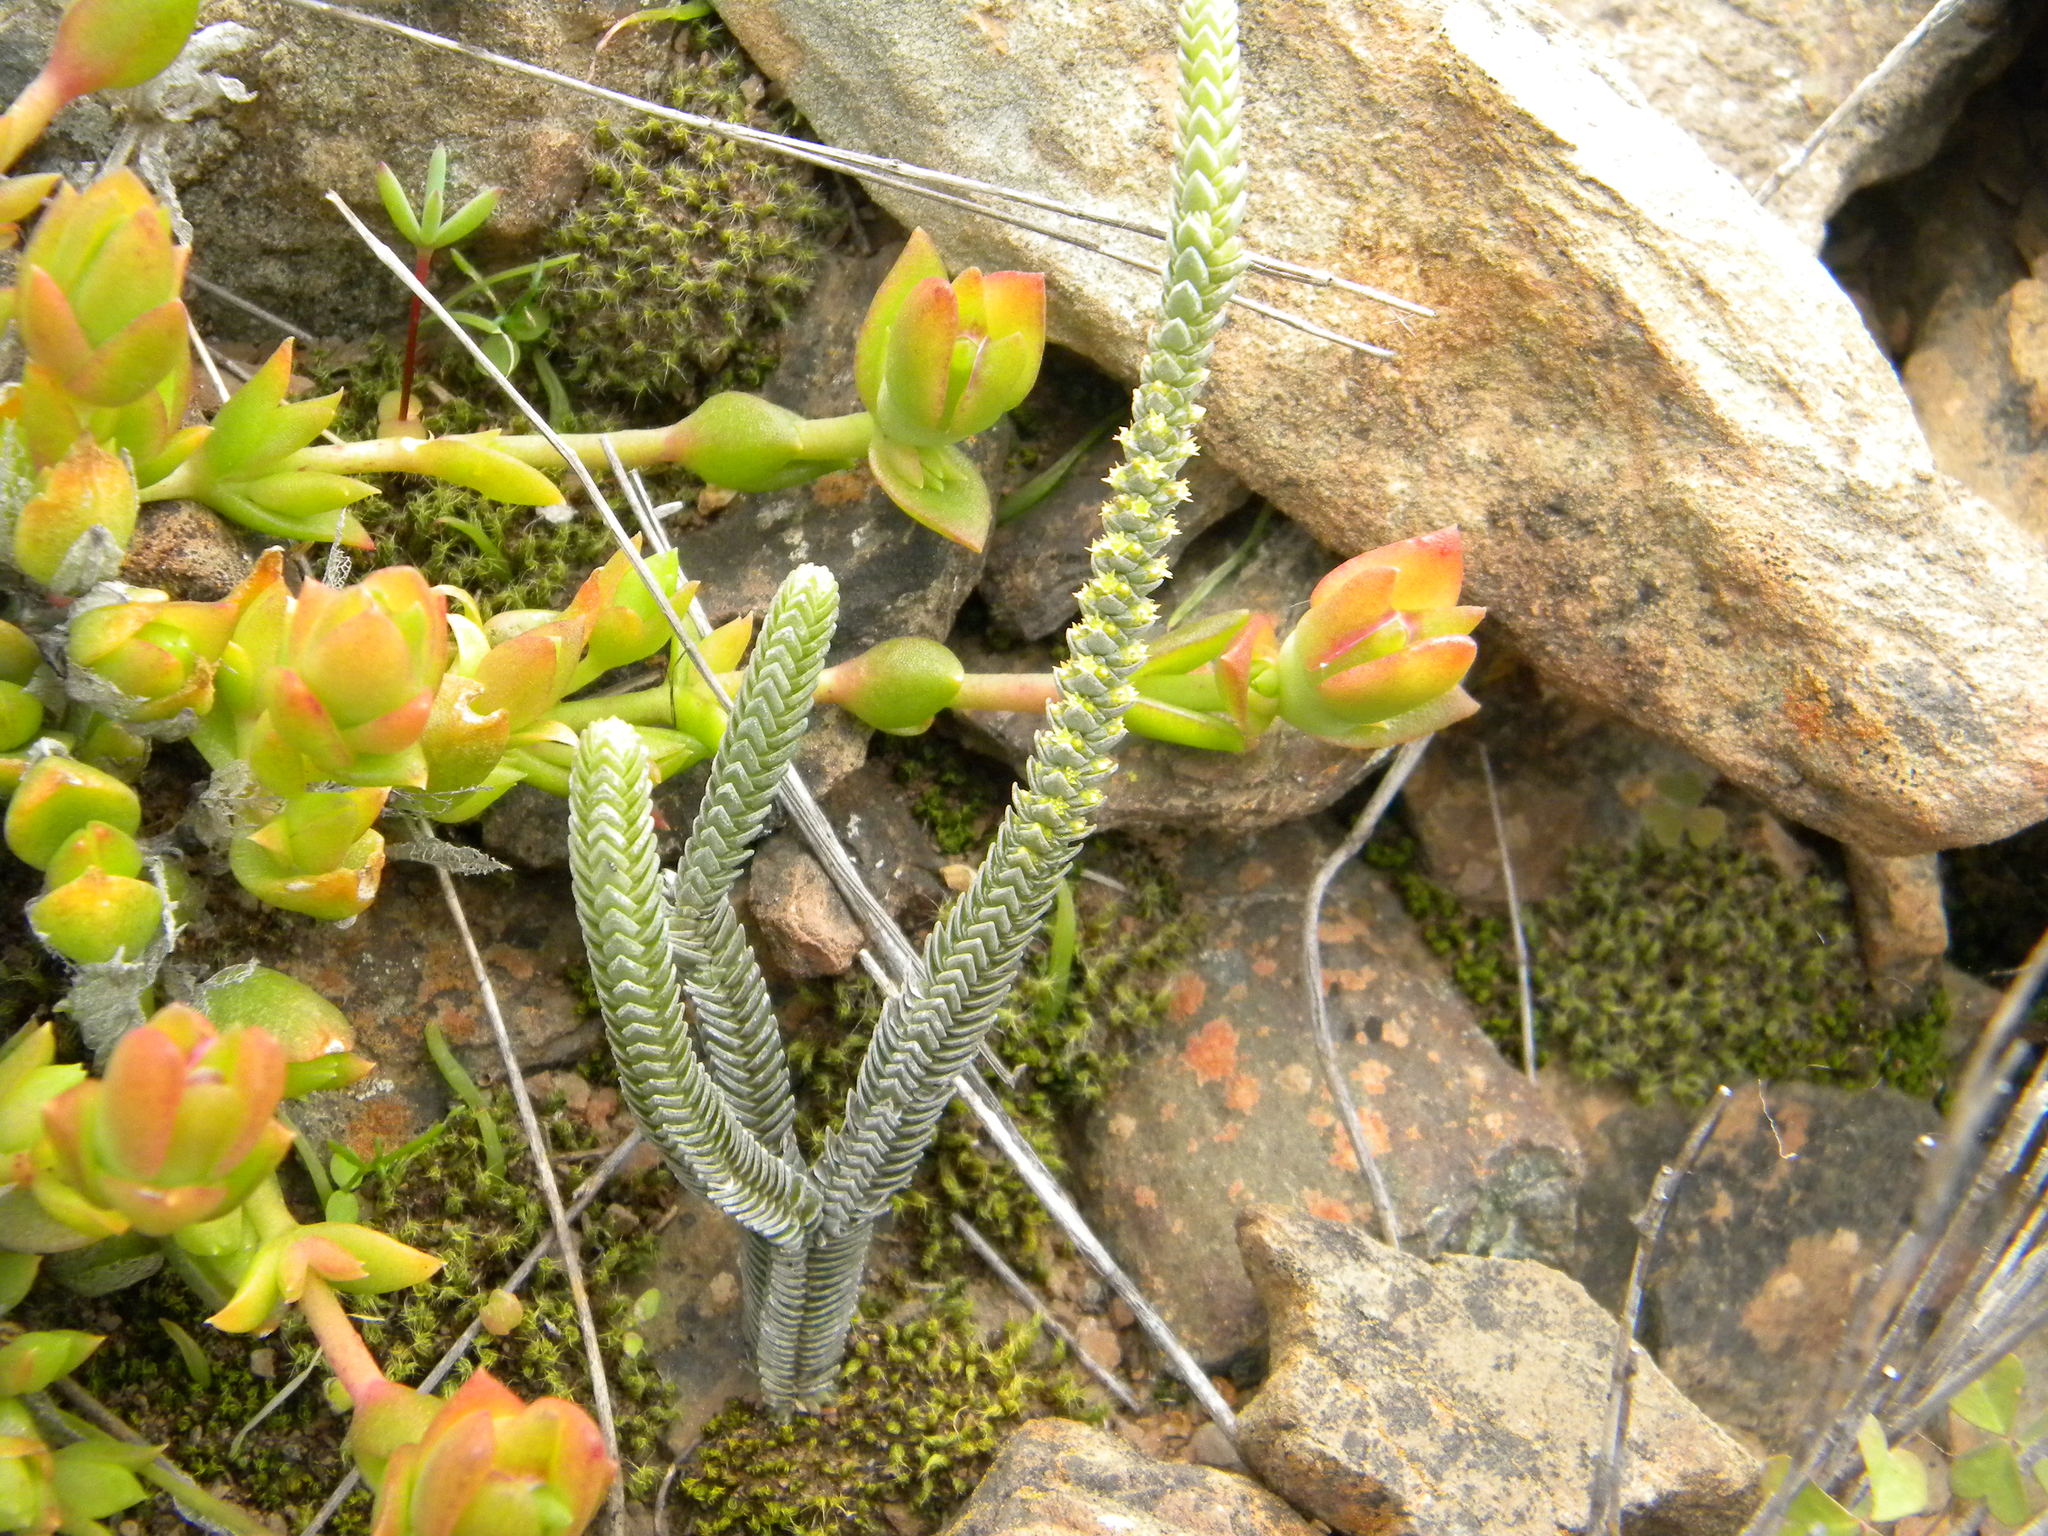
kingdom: Plantae
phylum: Tracheophyta
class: Magnoliopsida
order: Saxifragales
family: Crassulaceae
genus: Crassula
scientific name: Crassula muscosa
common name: Toy-cypress
